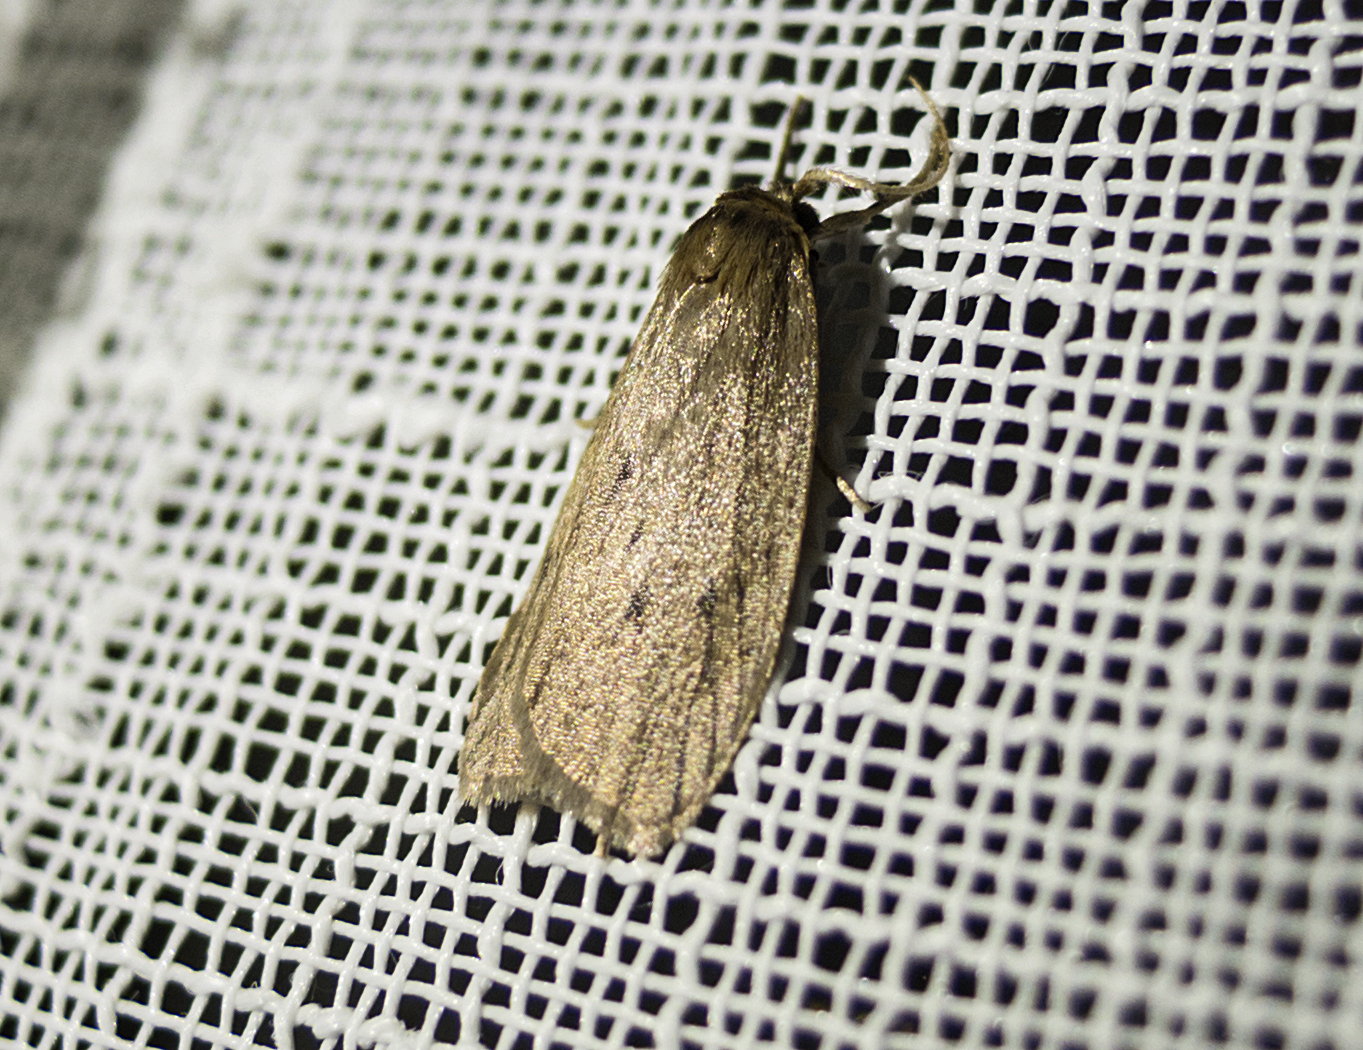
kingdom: Animalia
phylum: Arthropoda
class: Insecta
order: Lepidoptera
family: Erebidae
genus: Pelosia
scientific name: Pelosia obtusa
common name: Small dotted footman
